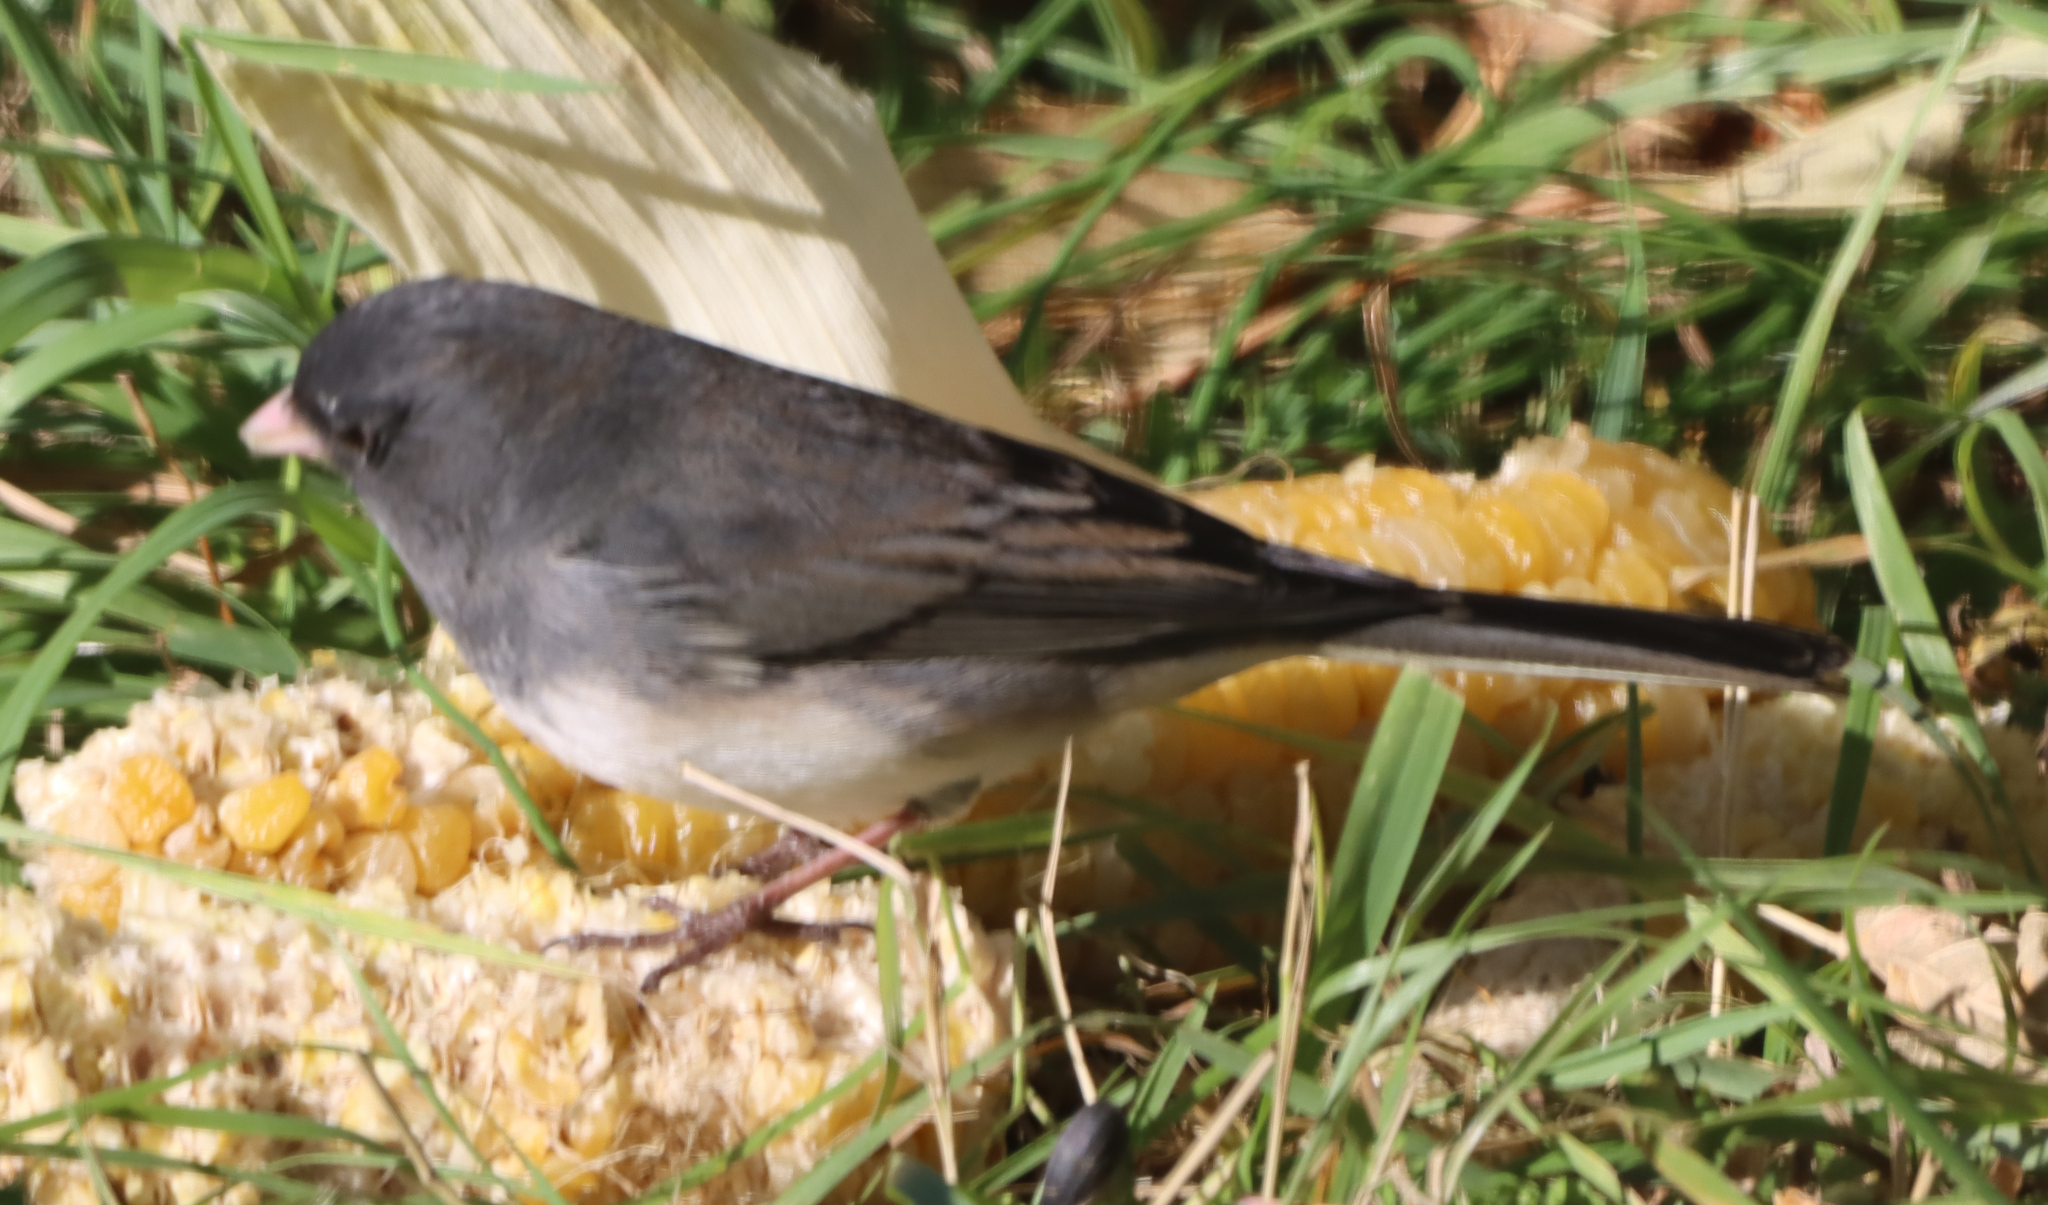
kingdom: Animalia
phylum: Chordata
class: Aves
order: Passeriformes
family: Passerellidae
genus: Junco
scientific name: Junco hyemalis
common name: Dark-eyed junco
